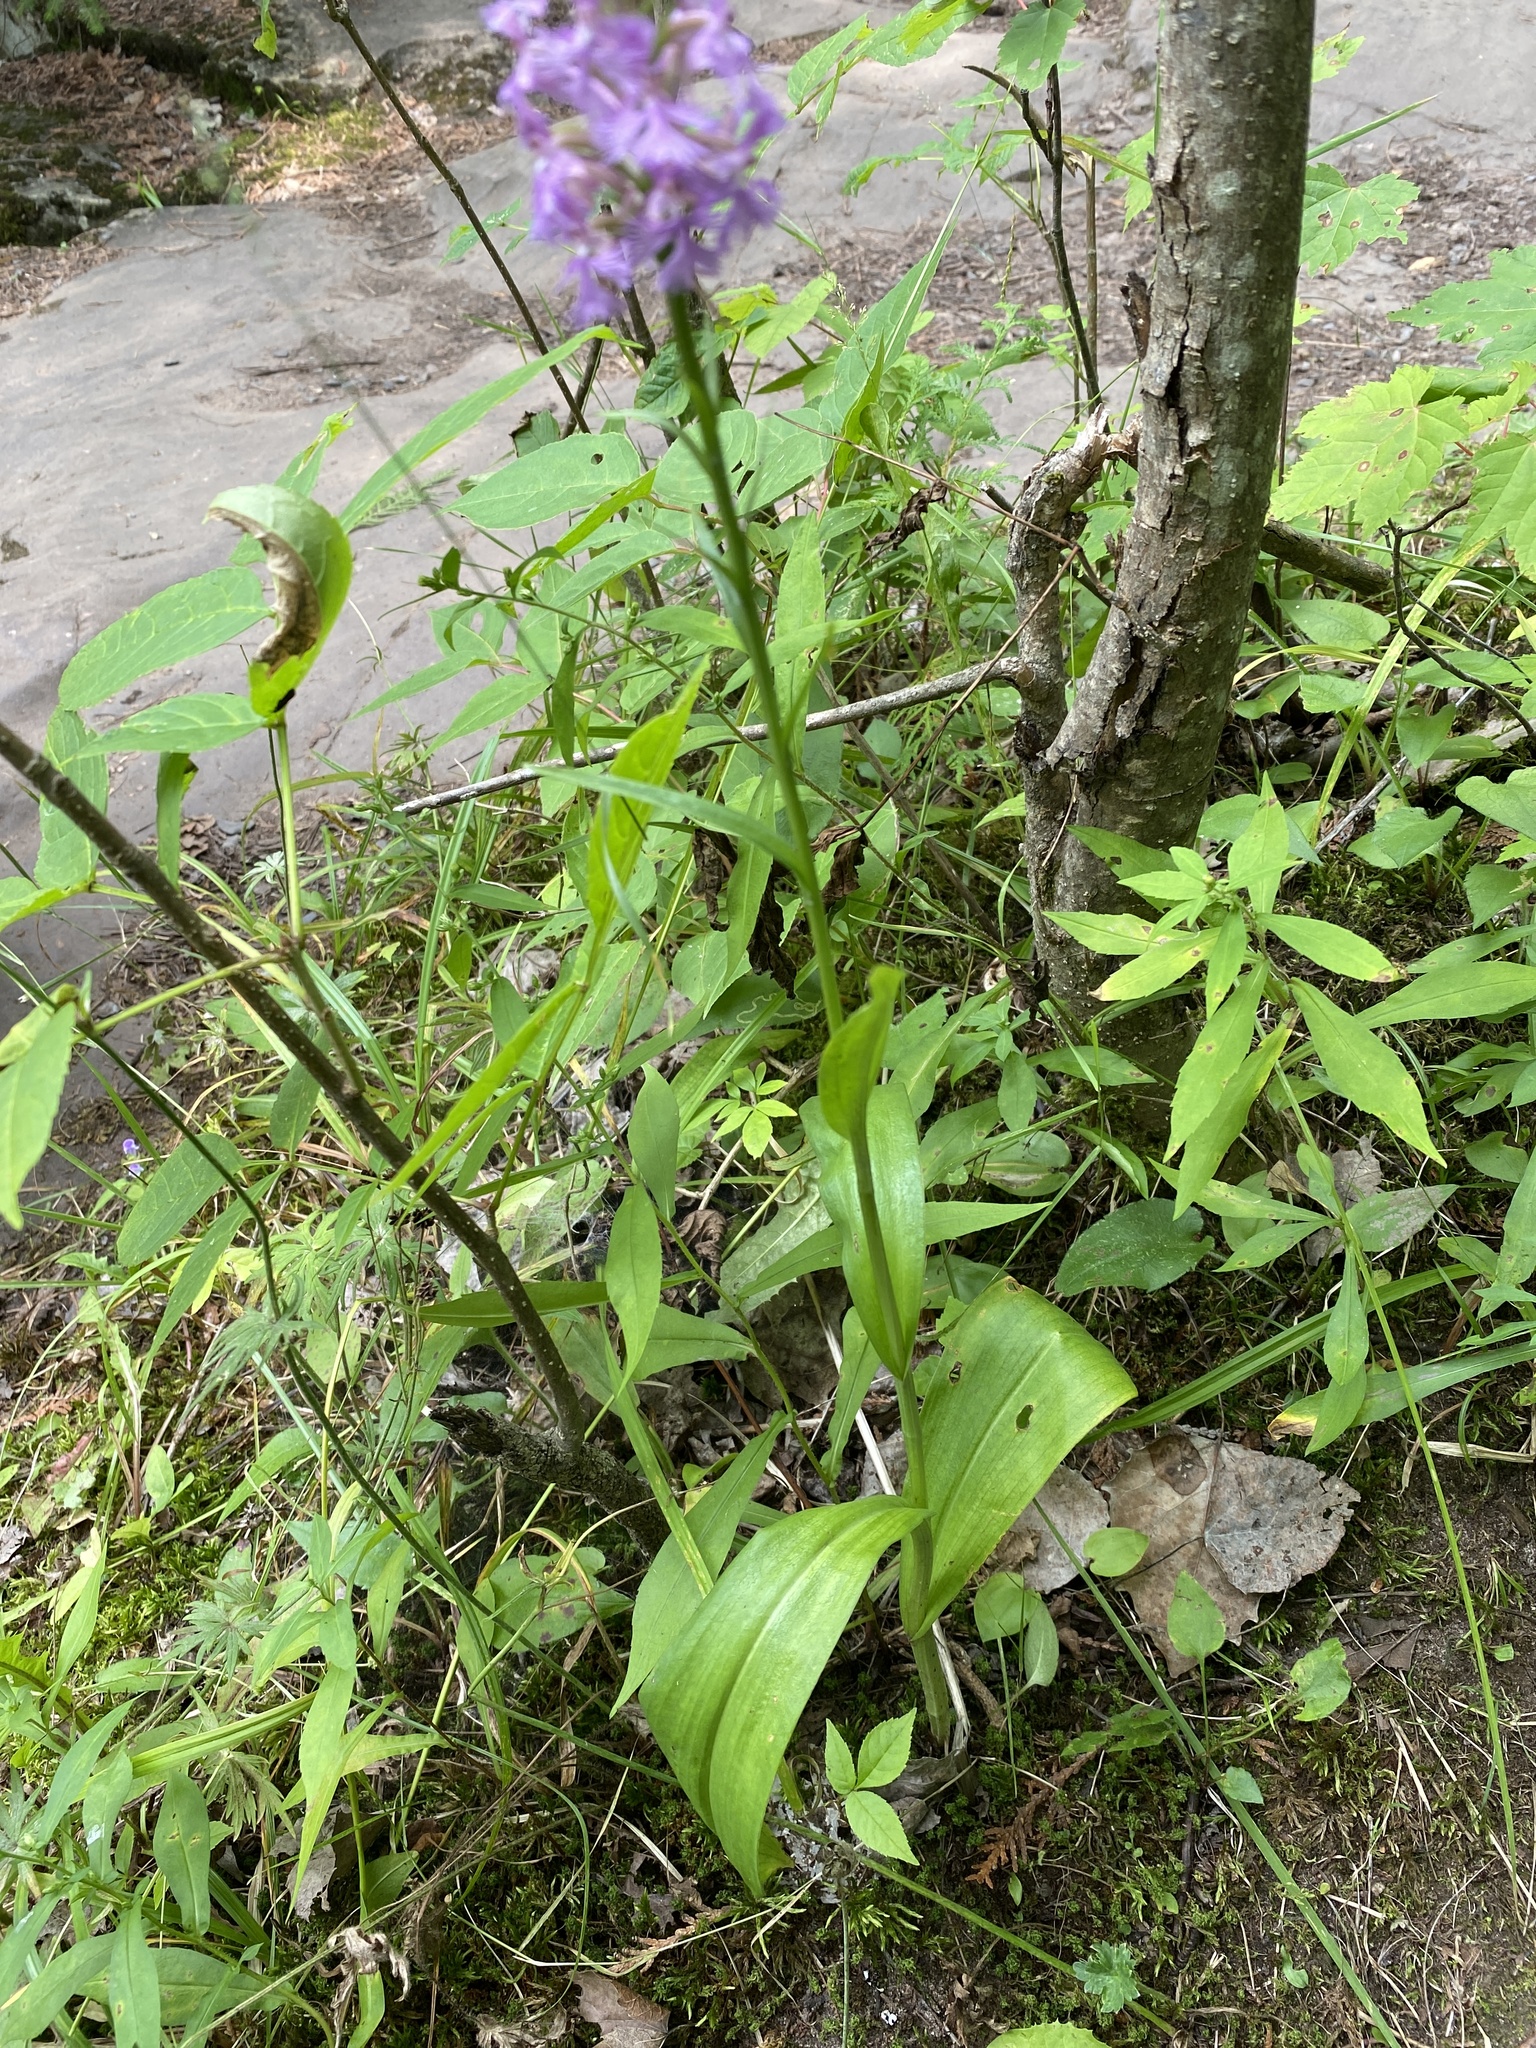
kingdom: Plantae
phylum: Tracheophyta
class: Liliopsida
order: Asparagales
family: Orchidaceae
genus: Platanthera
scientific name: Platanthera psycodes
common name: Lesser purple fringed orchid
